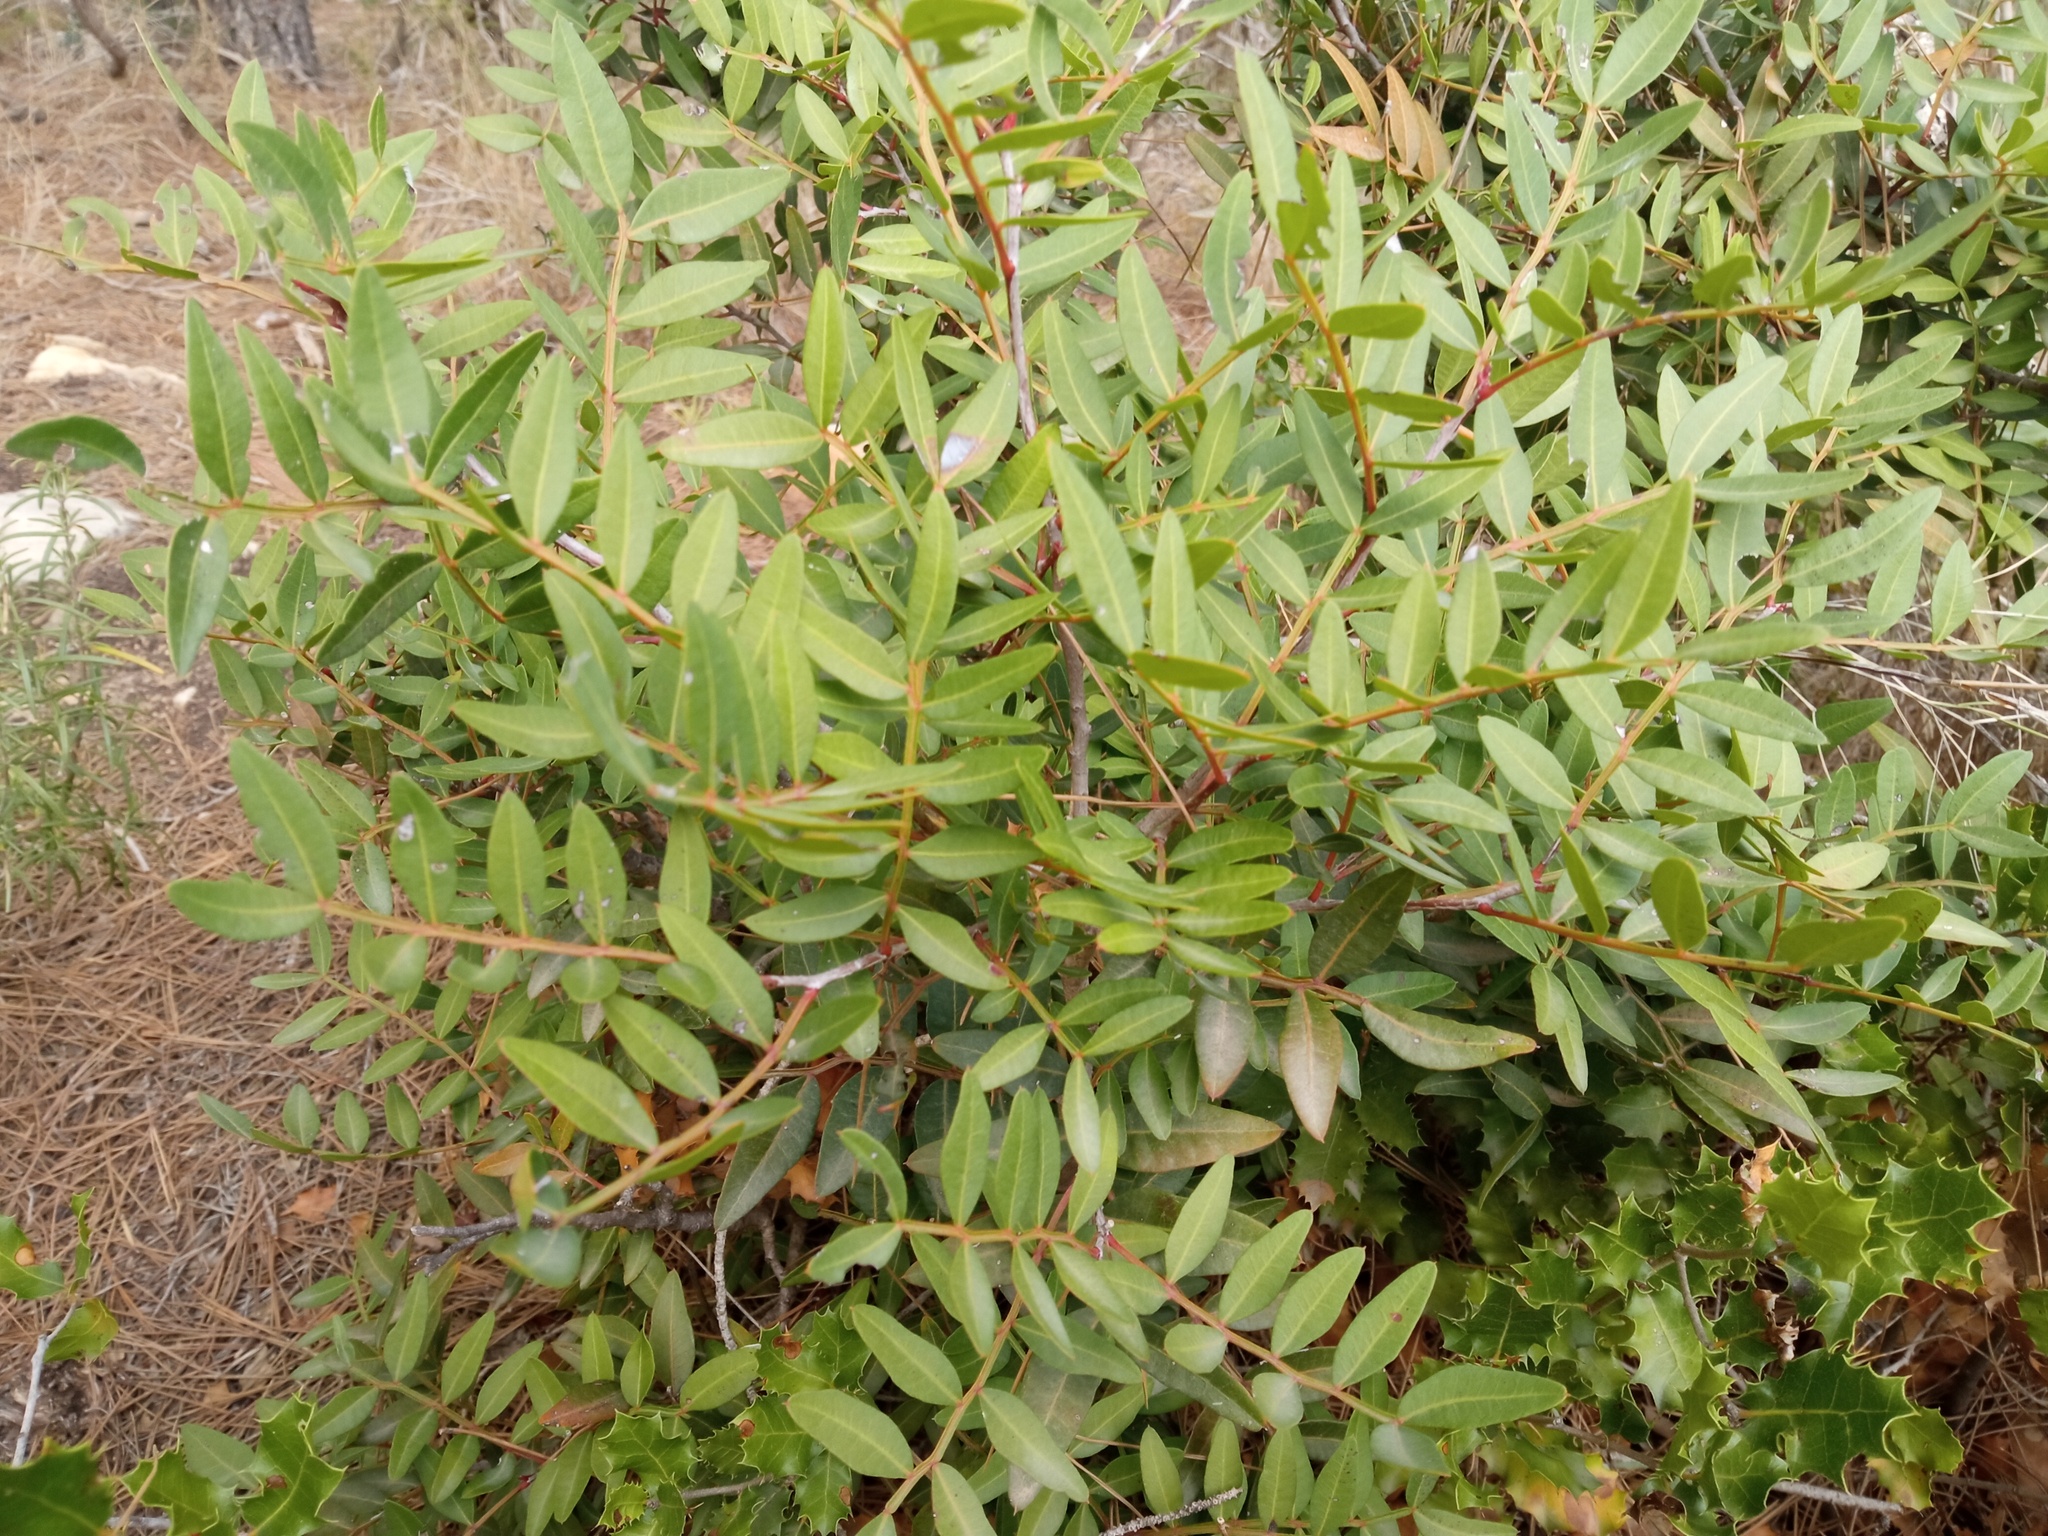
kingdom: Plantae
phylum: Tracheophyta
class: Magnoliopsida
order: Sapindales
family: Anacardiaceae
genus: Pistacia
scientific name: Pistacia lentiscus
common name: Lentisk
